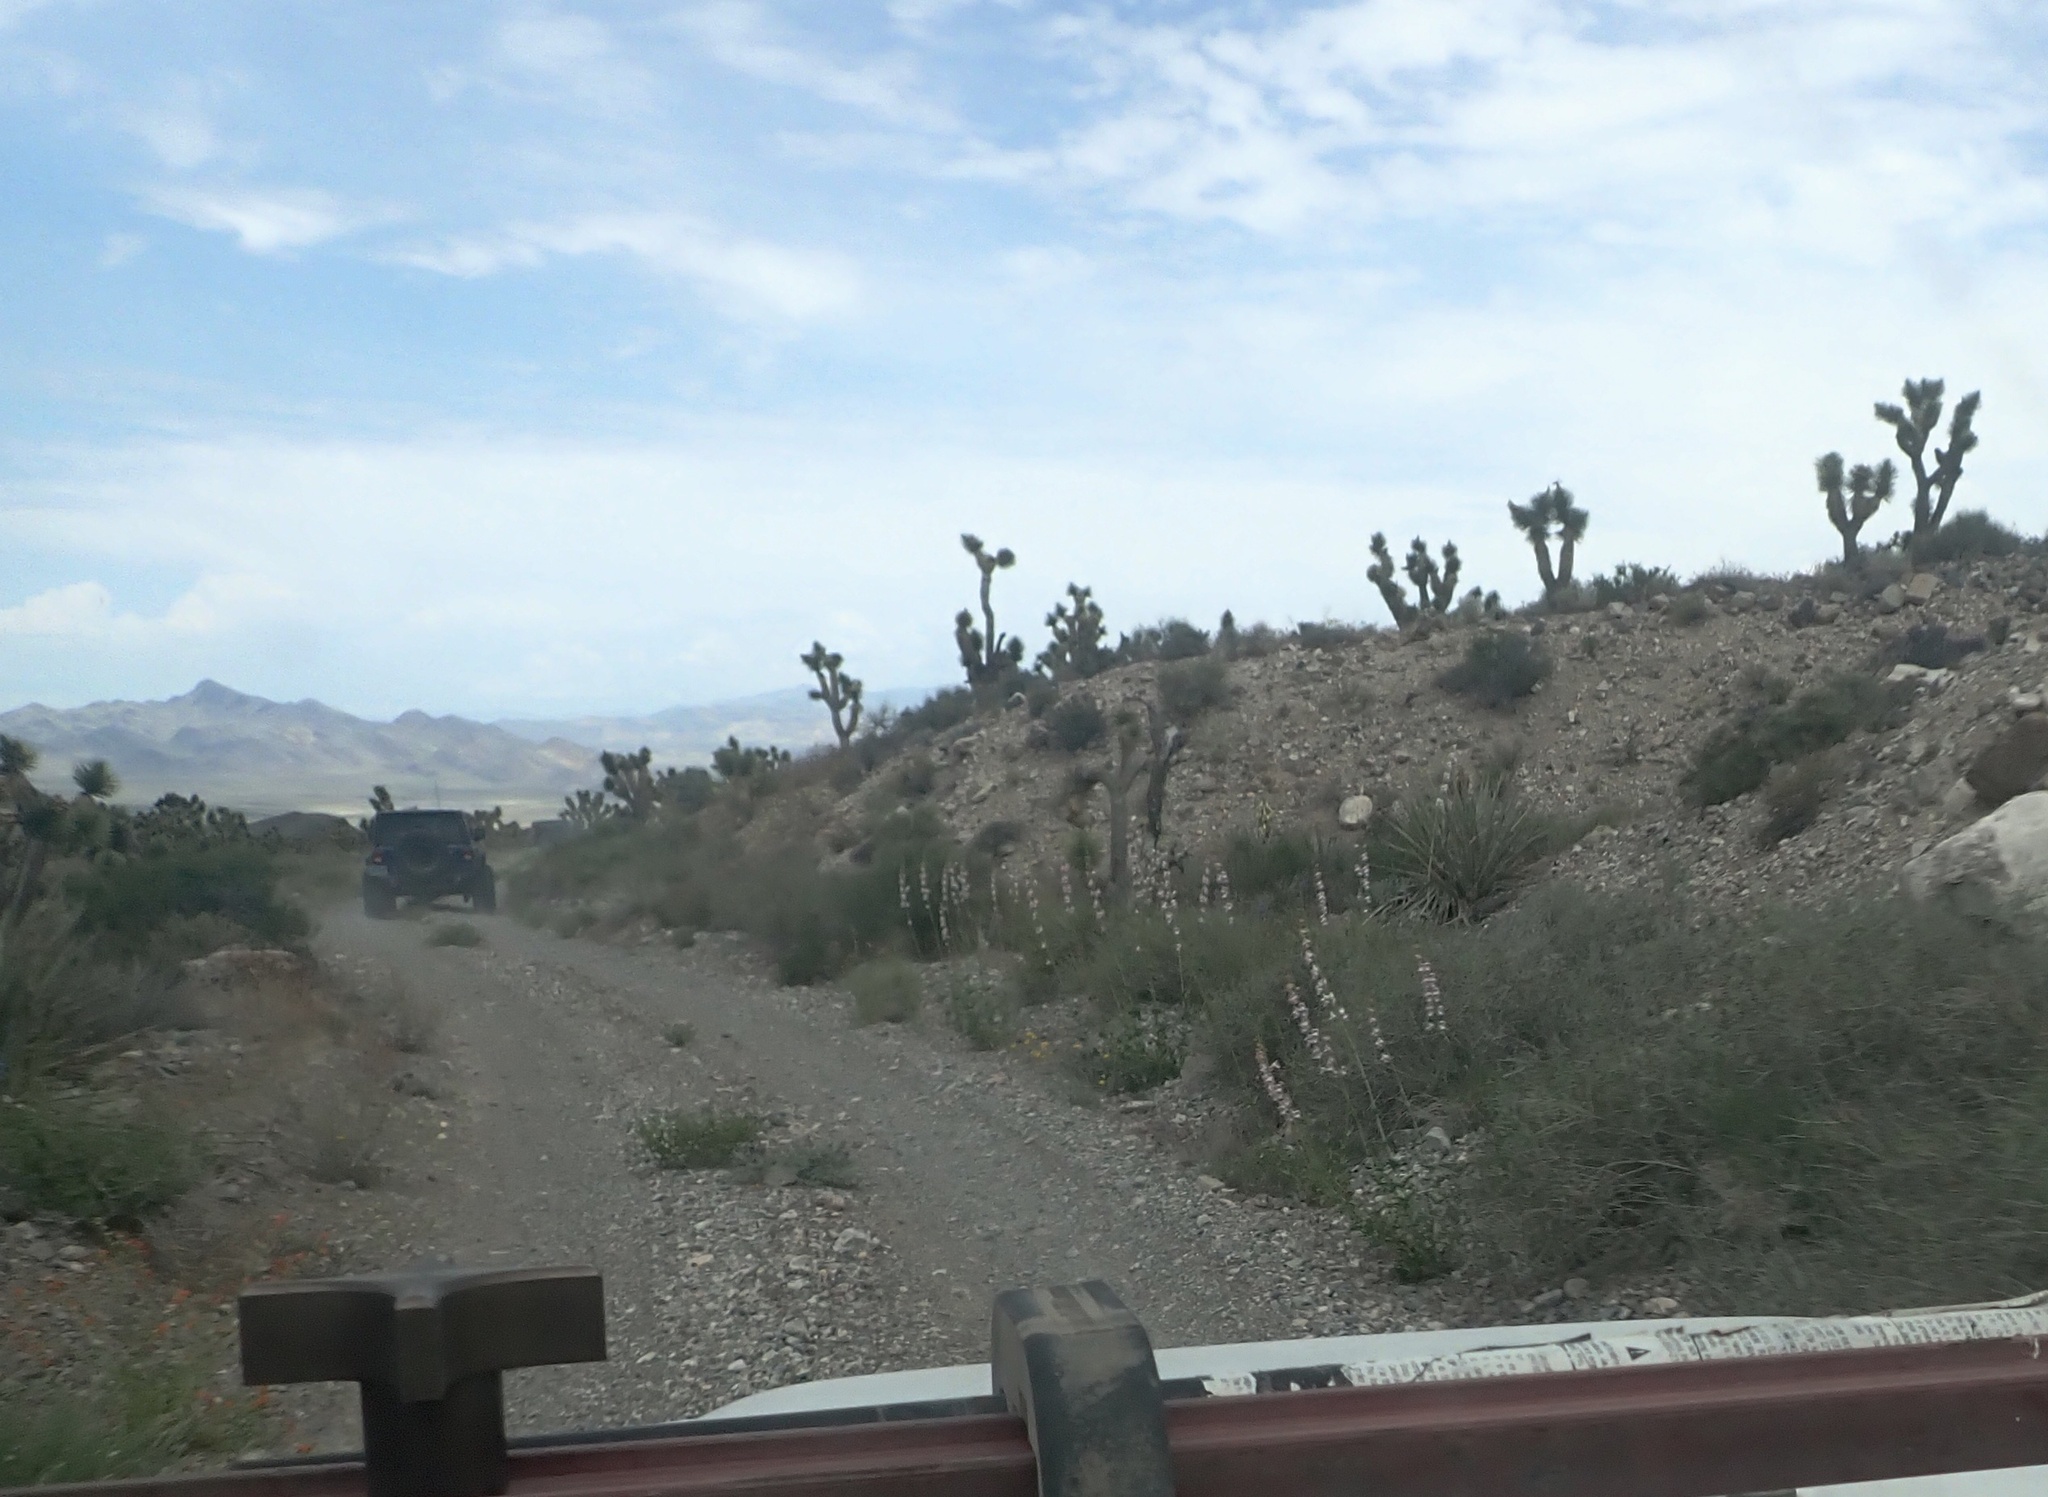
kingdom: Plantae
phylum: Tracheophyta
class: Magnoliopsida
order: Lamiales
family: Plantaginaceae
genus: Penstemon
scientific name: Penstemon palmeri
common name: Palmer penstemon
